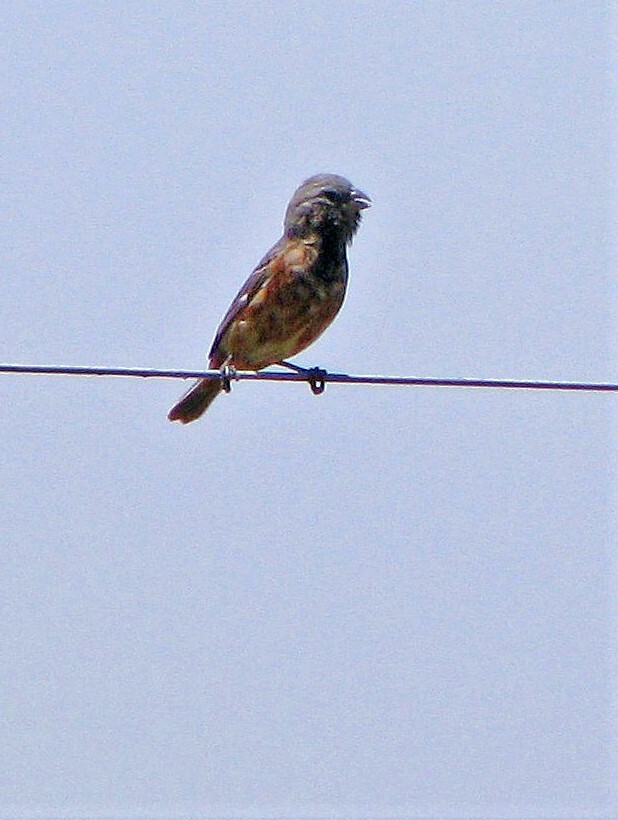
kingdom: Animalia
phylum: Chordata
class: Aves
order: Passeriformes
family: Thraupidae
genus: Sporophila
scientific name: Sporophila ruficollis
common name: Dark-throated seedeater
